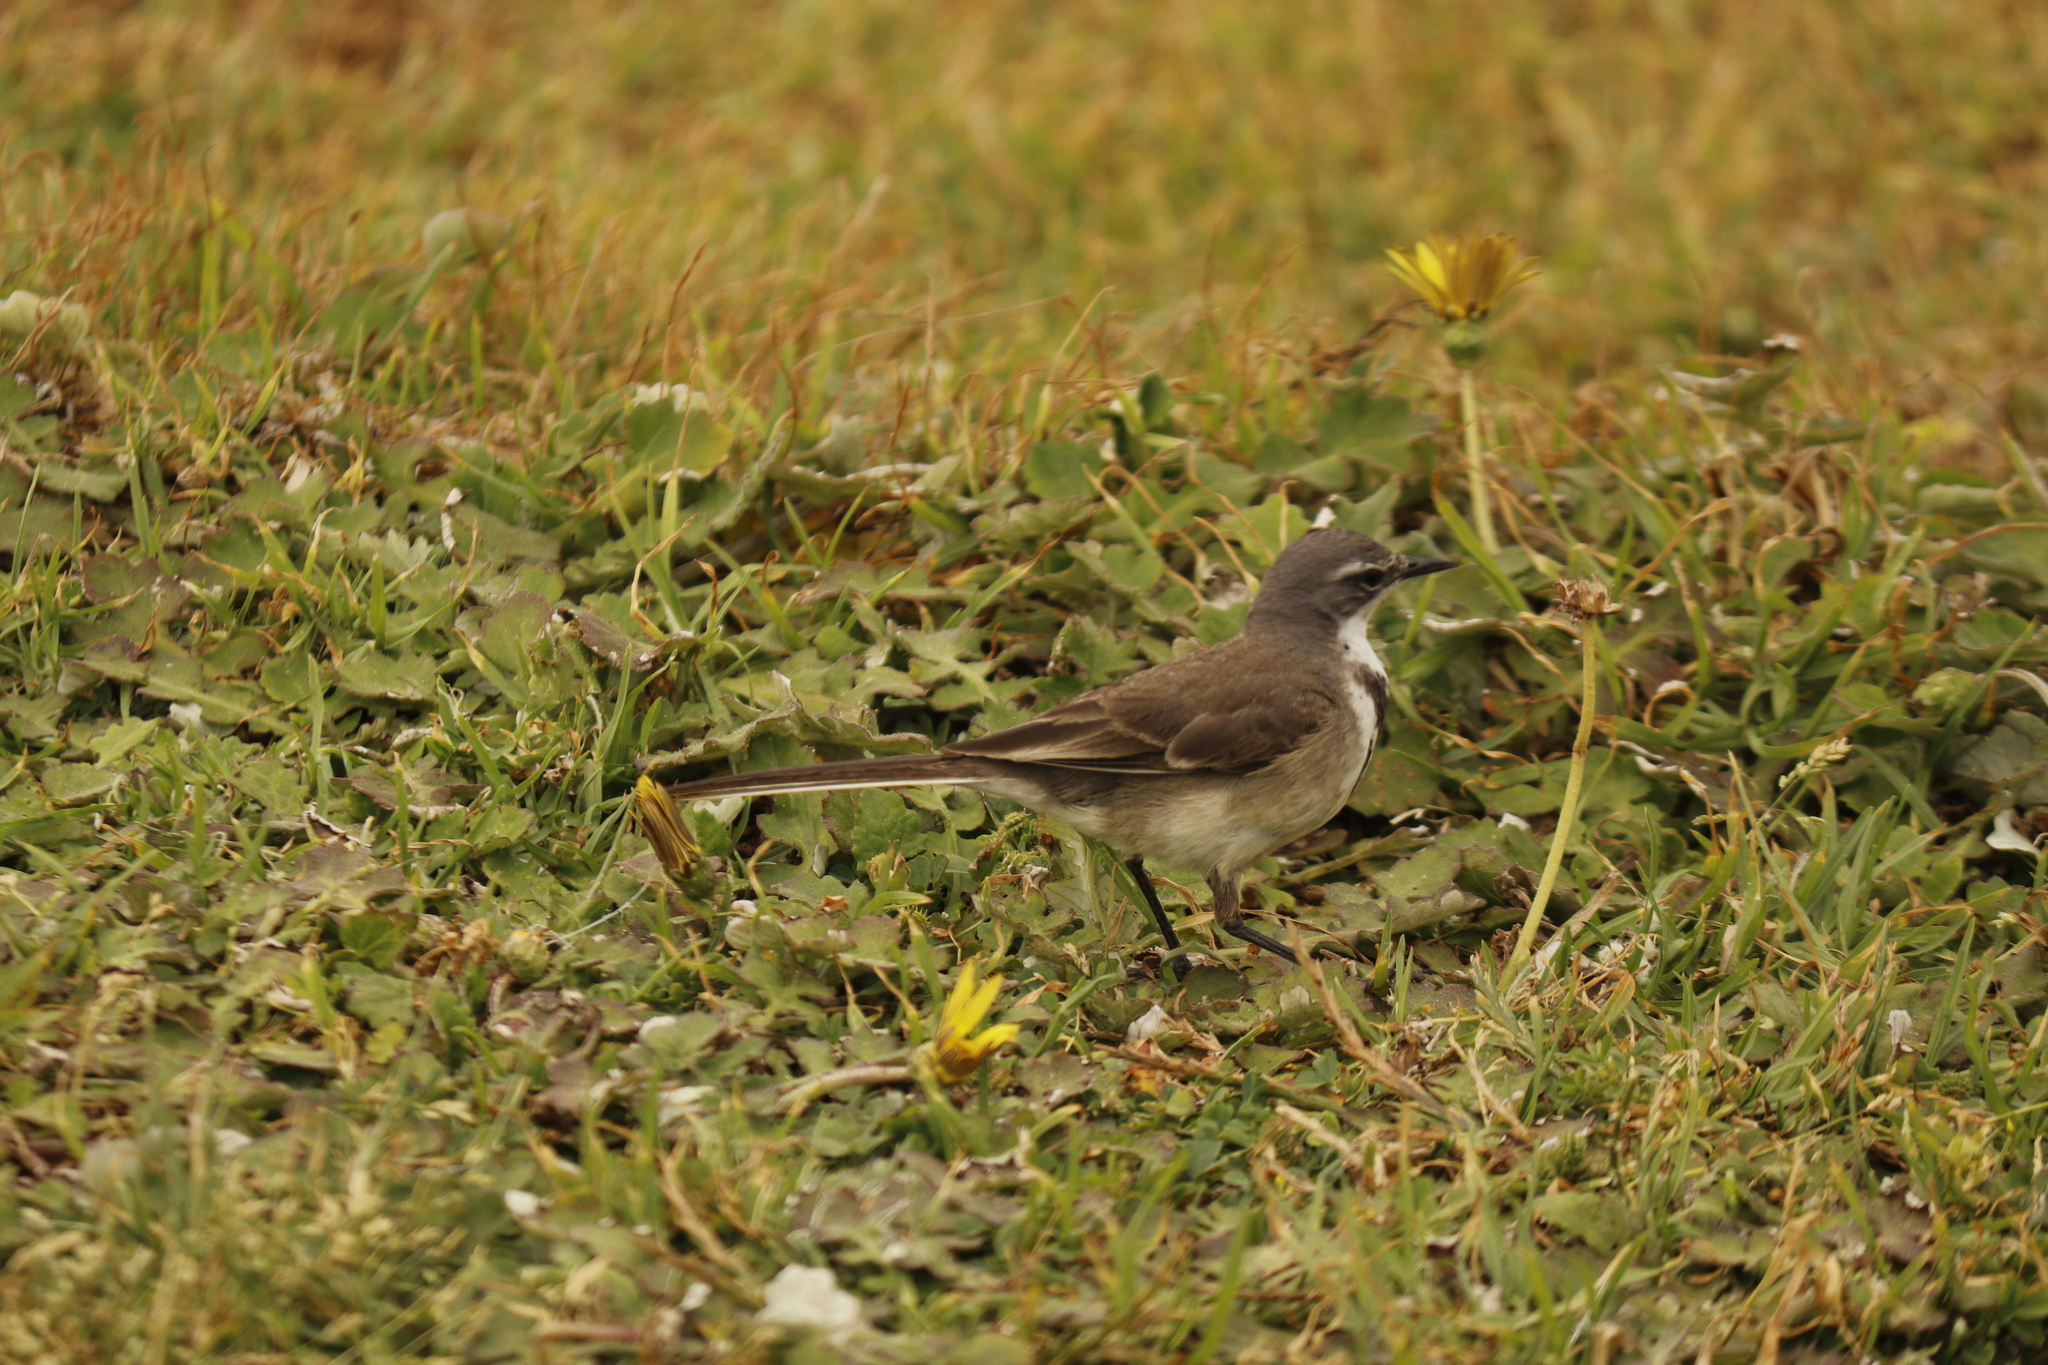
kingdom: Animalia
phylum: Chordata
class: Aves
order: Passeriformes
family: Motacillidae
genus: Motacilla
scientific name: Motacilla capensis
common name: Cape wagtail
